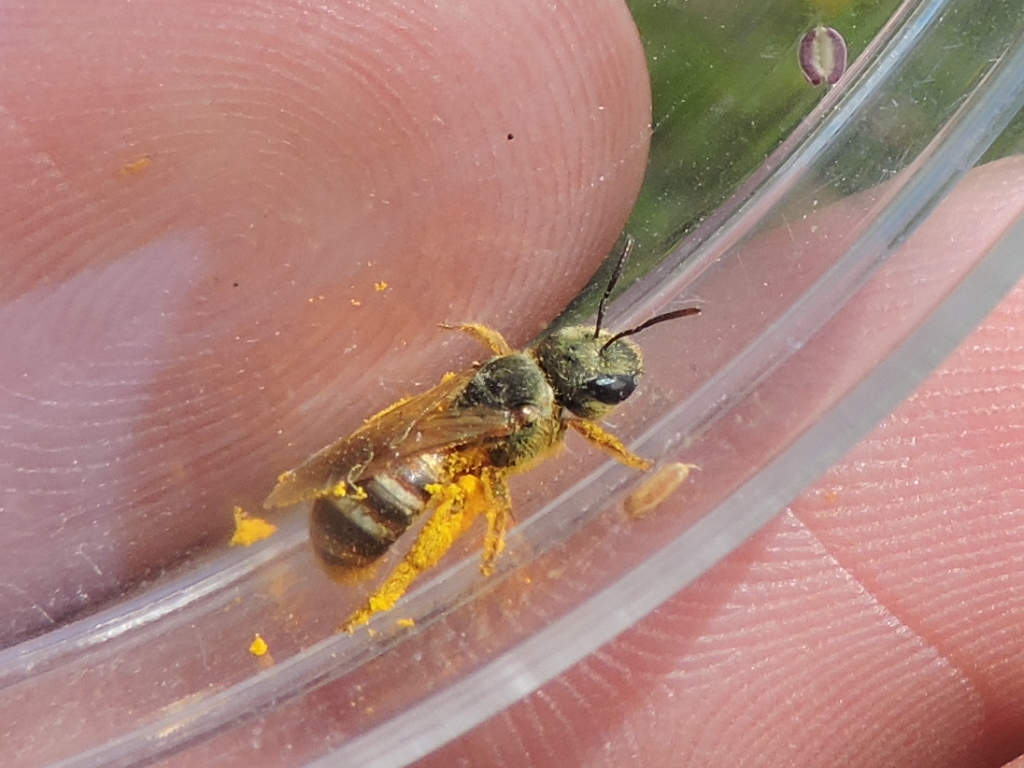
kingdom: Animalia
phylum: Arthropoda
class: Insecta
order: Hymenoptera
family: Halictidae
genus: Halictus
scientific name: Halictus ligatus
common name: Ligated furrow bee
